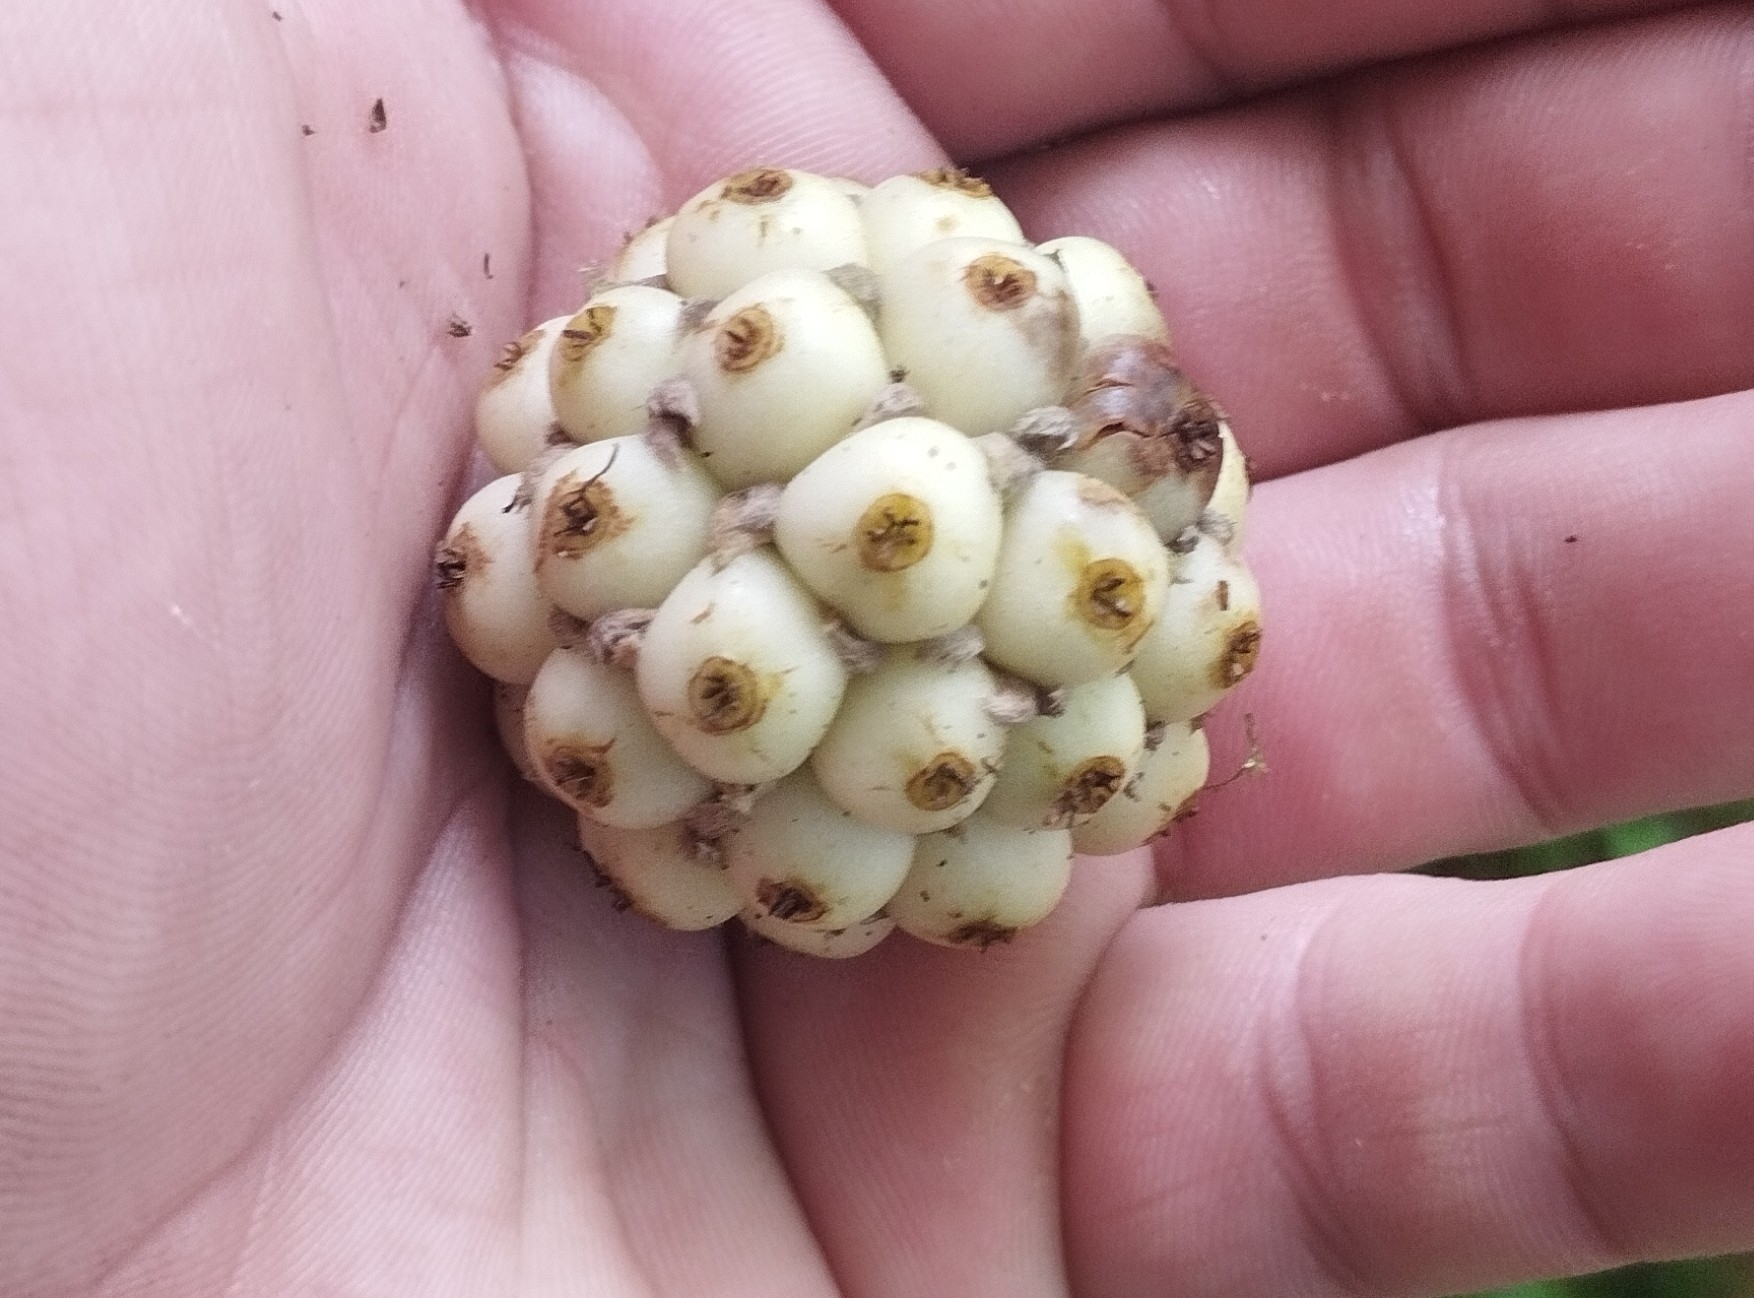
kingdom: Plantae
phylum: Tracheophyta
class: Magnoliopsida
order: Gentianales
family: Rubiaceae
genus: Morinda
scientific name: Morinda citrifolia
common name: Indian-mulberry
